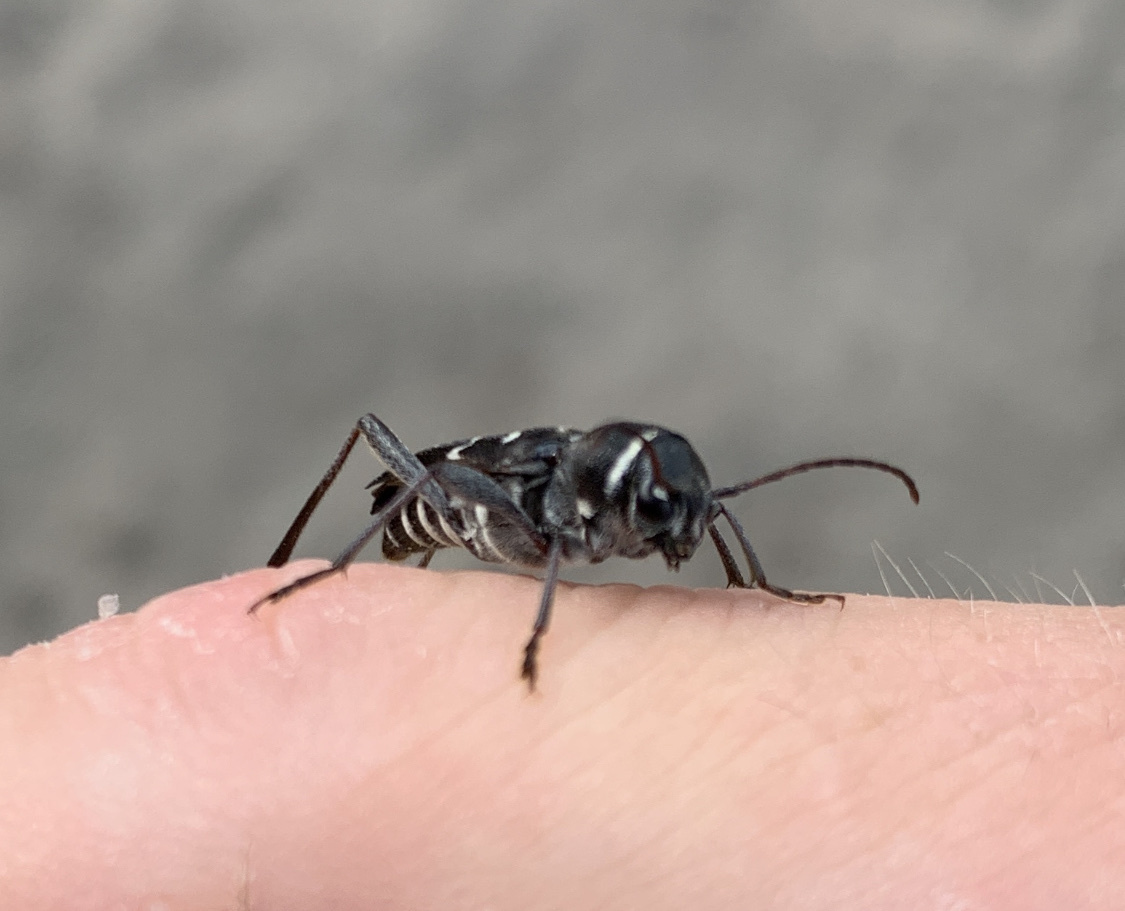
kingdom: Animalia
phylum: Arthropoda
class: Insecta
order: Coleoptera
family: Cerambycidae
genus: Xylotrechus
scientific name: Xylotrechus undulatus
